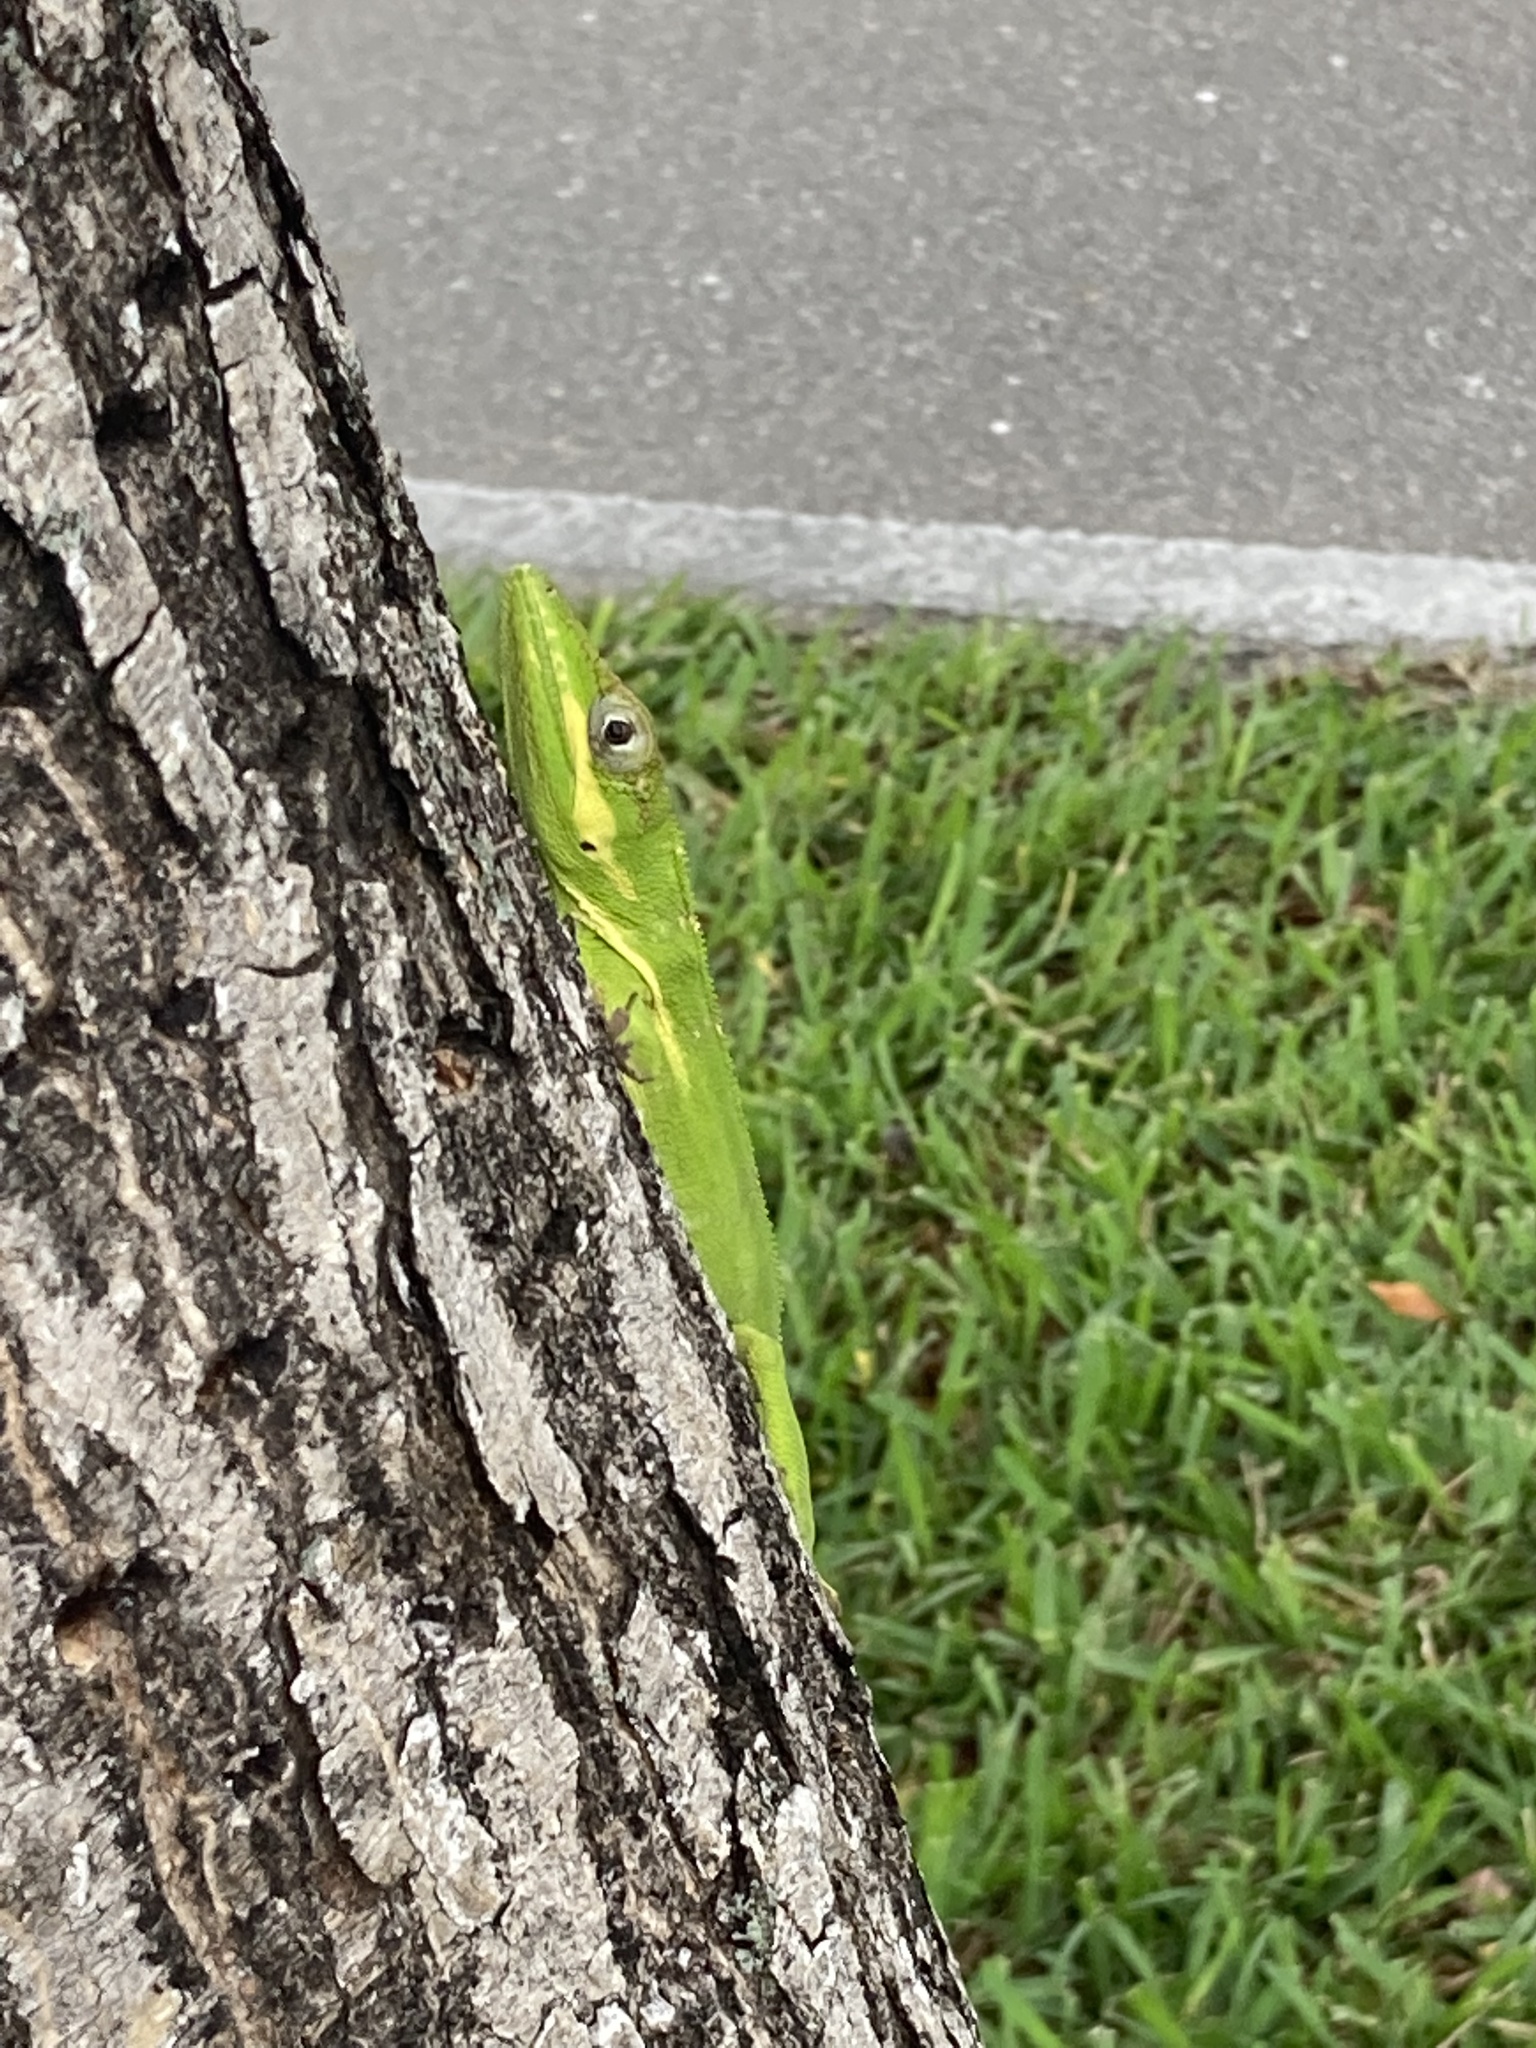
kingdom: Animalia
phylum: Chordata
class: Squamata
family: Dactyloidae
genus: Anolis
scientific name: Anolis equestris
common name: Knight anole
